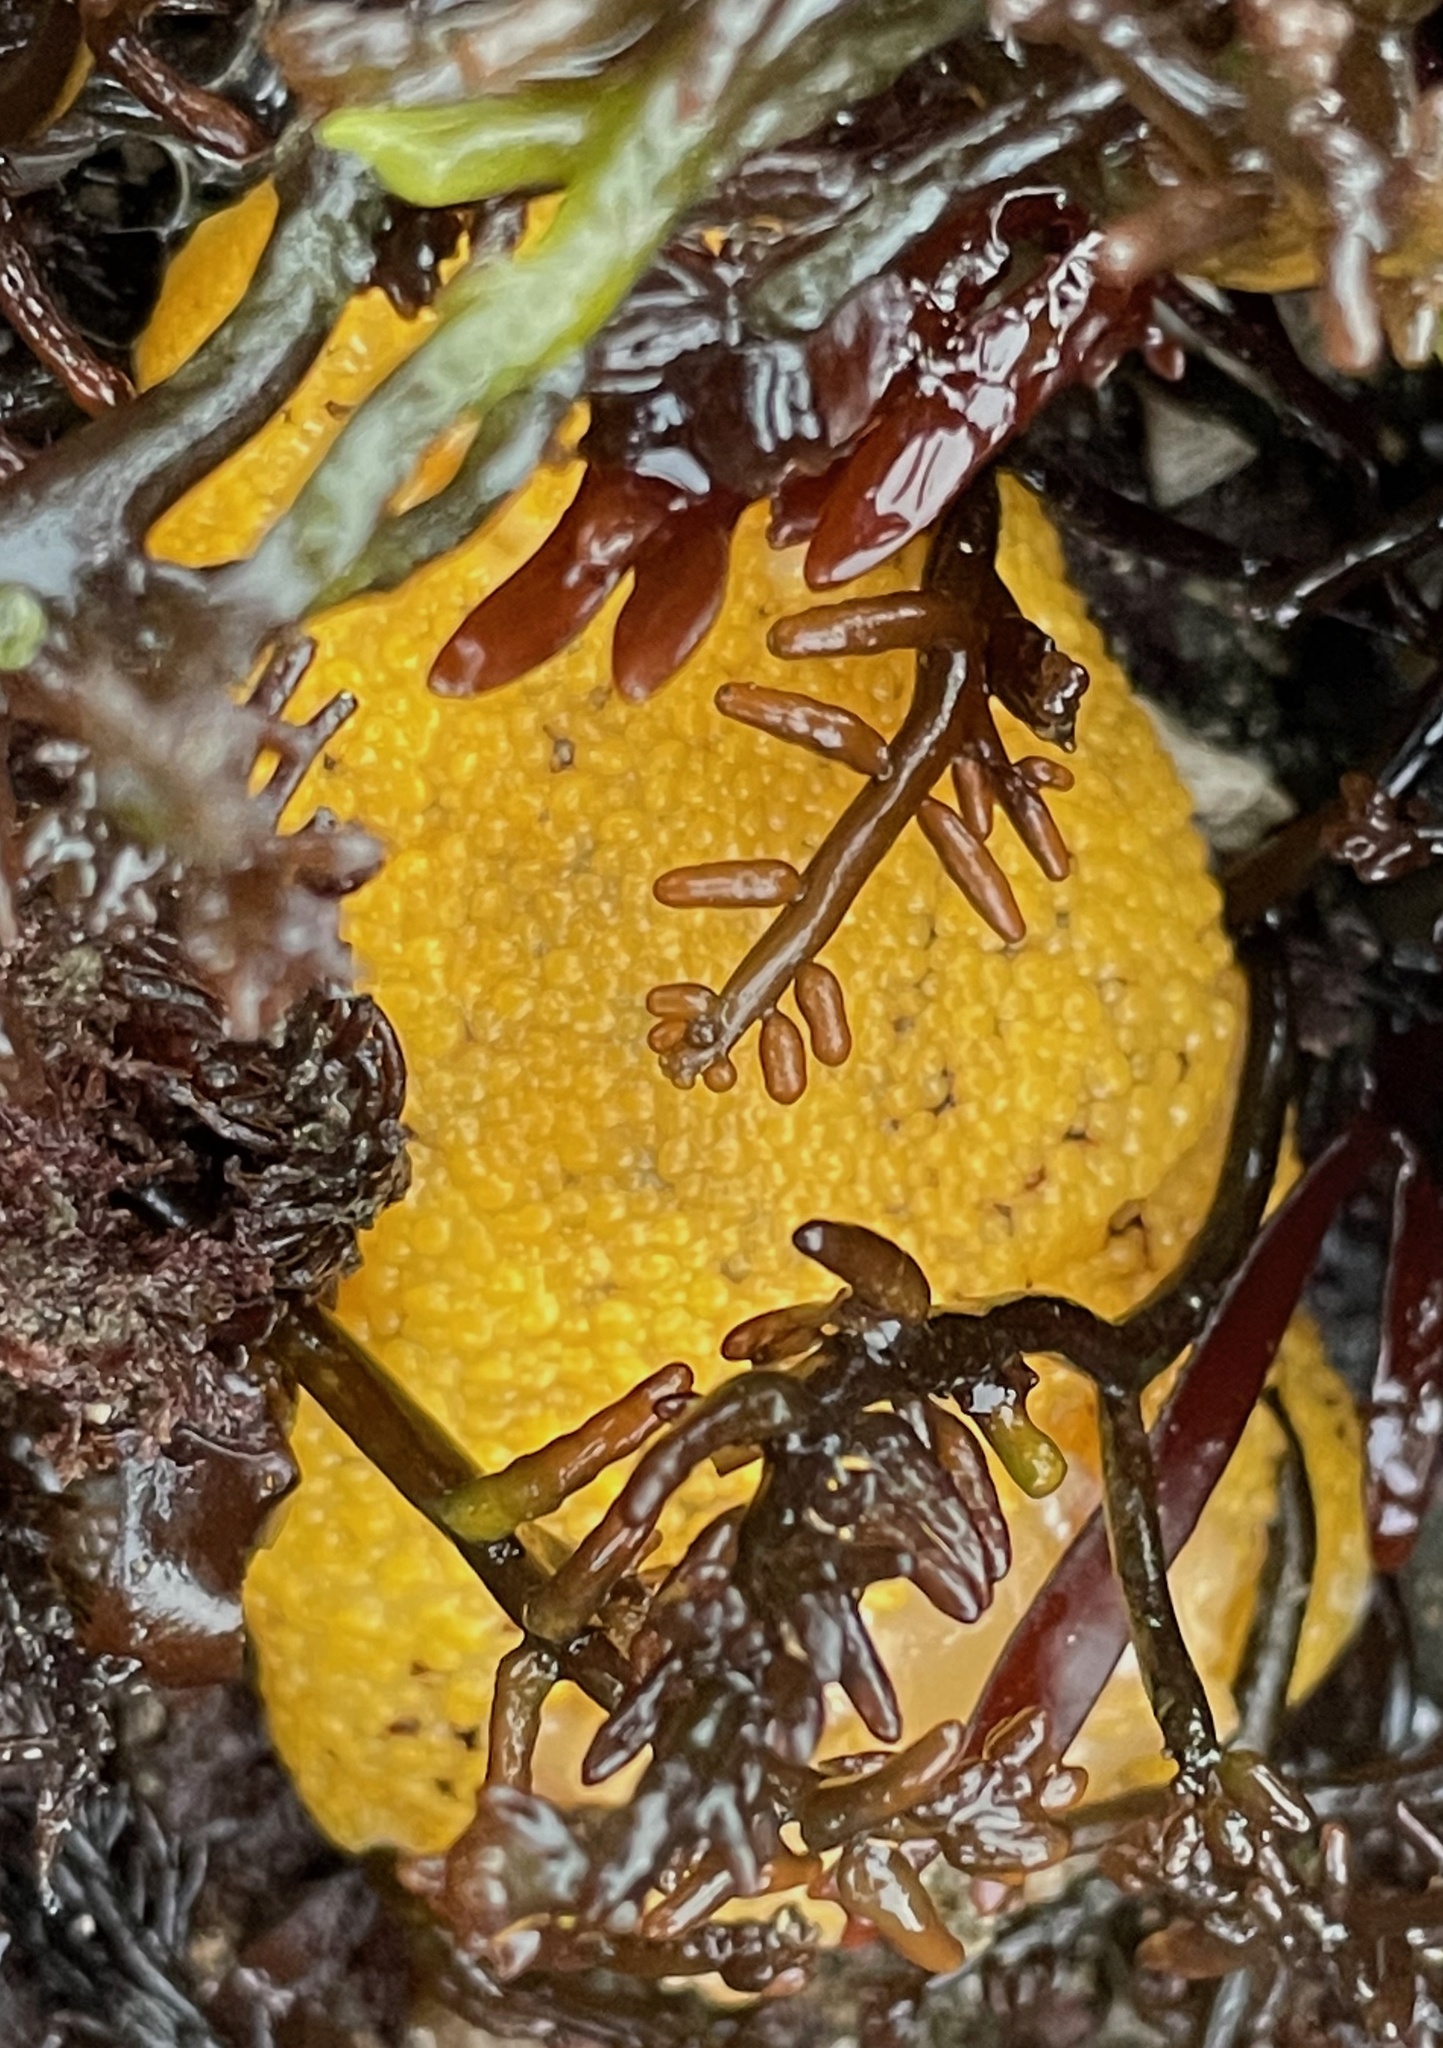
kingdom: Animalia
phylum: Mollusca
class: Gastropoda
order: Nudibranchia
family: Discodorididae
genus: Peltodoris
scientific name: Peltodoris nobilis
